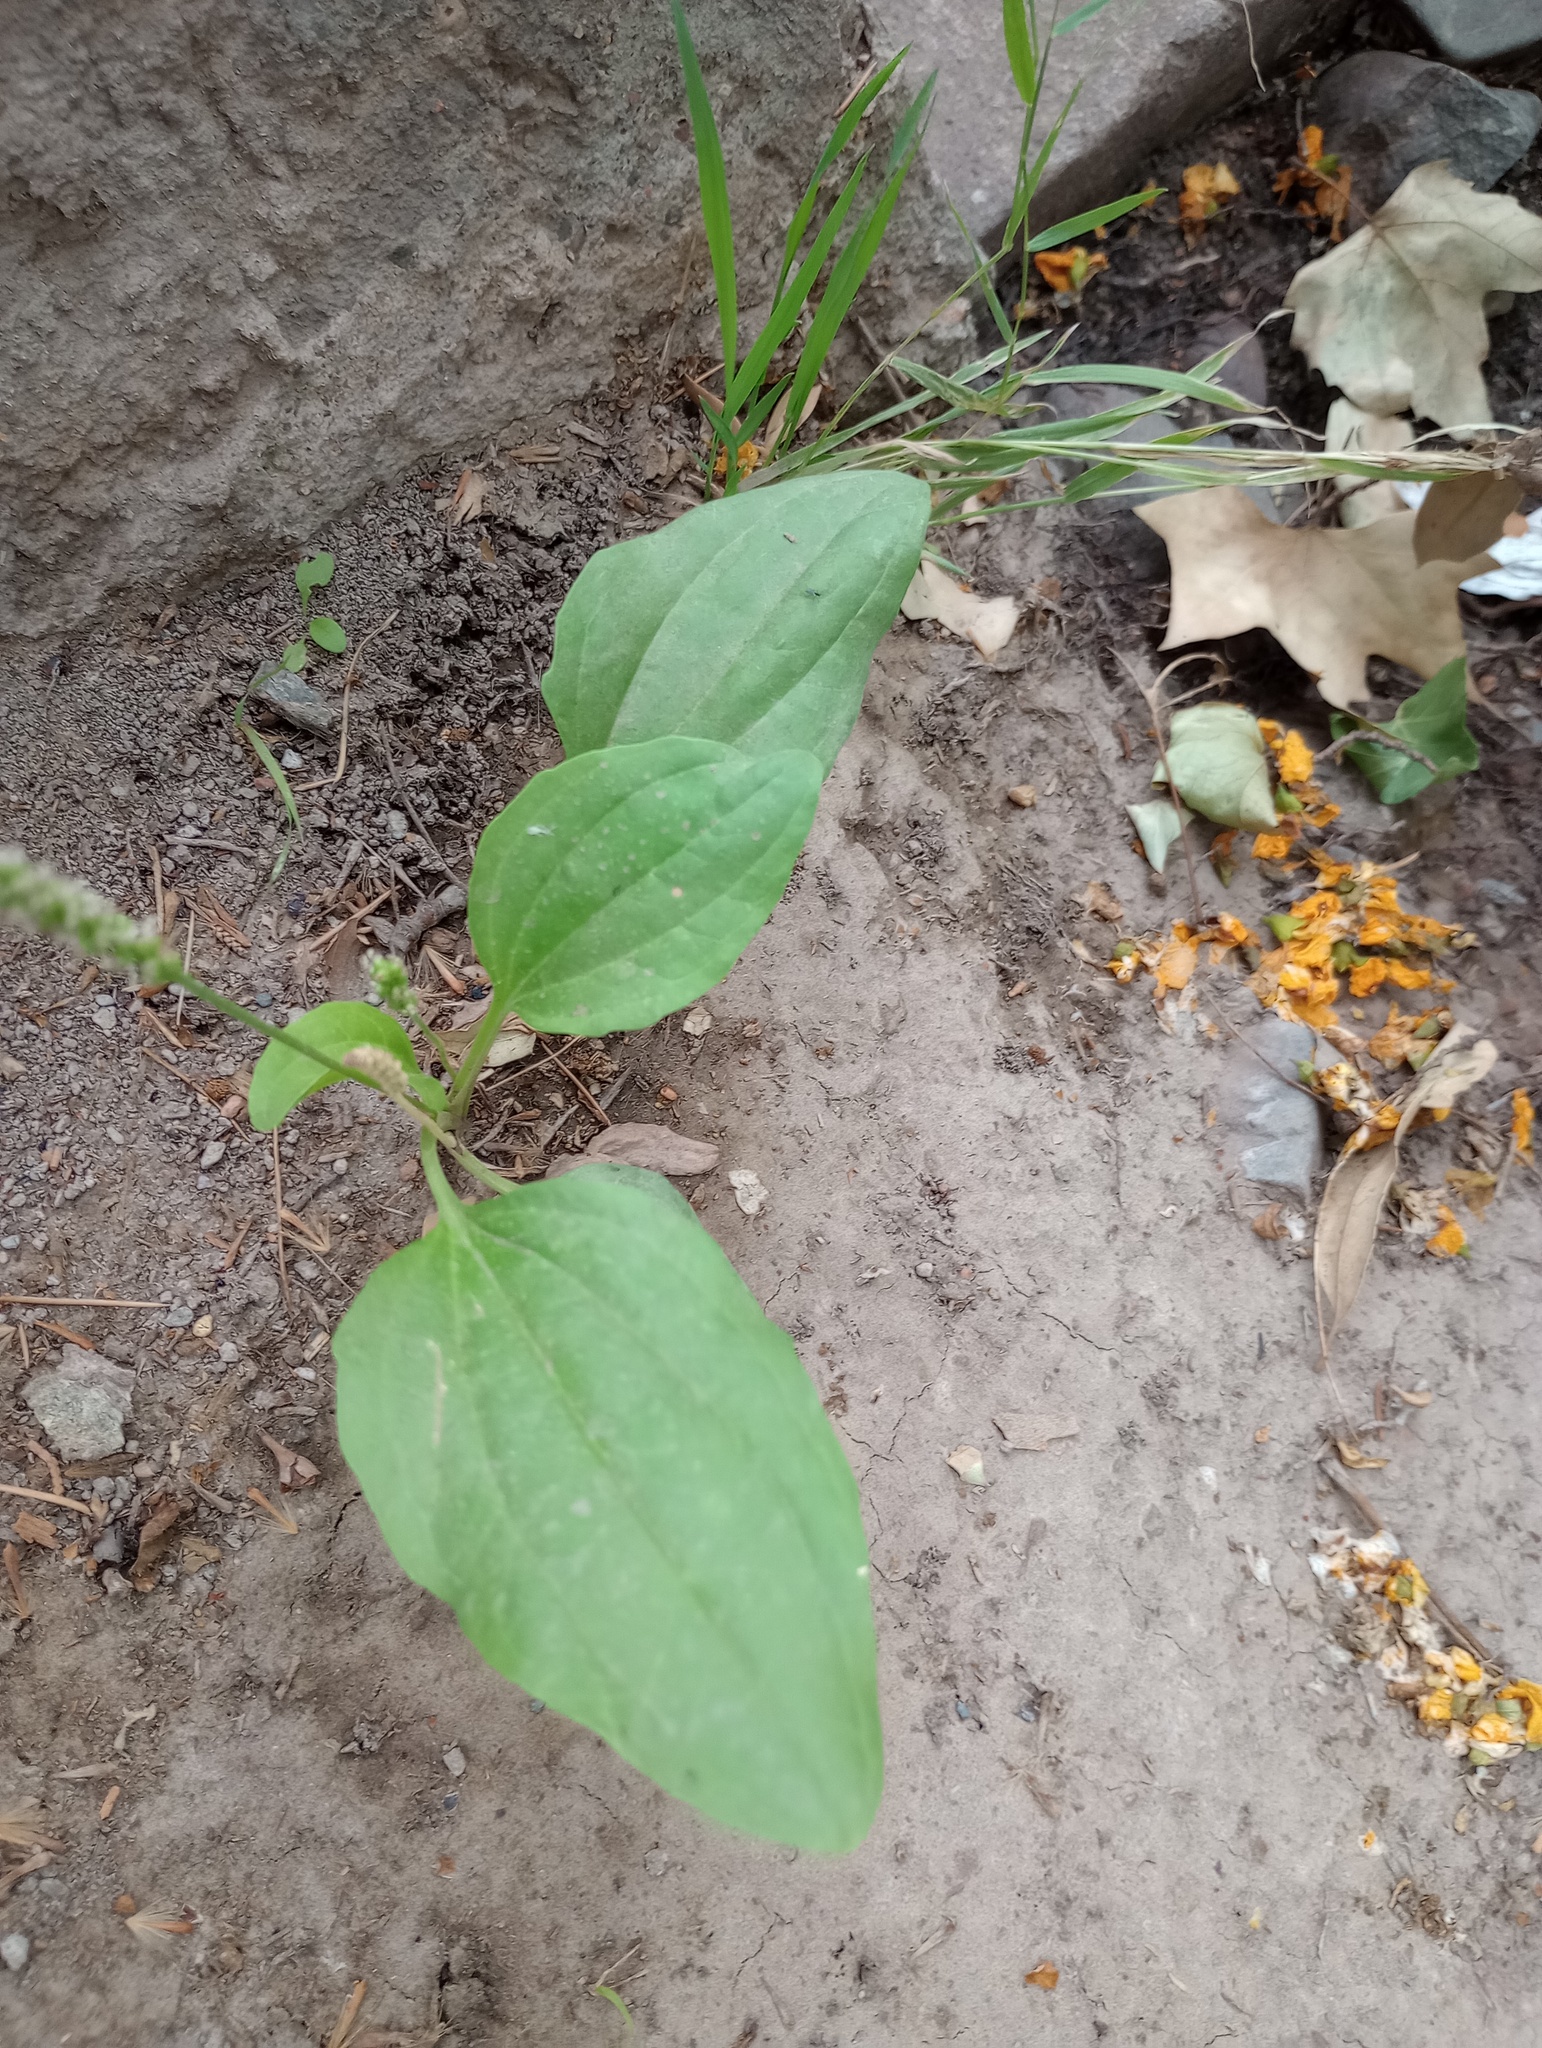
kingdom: Plantae
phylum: Tracheophyta
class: Magnoliopsida
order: Lamiales
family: Plantaginaceae
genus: Plantago
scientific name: Plantago major
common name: Common plantain
